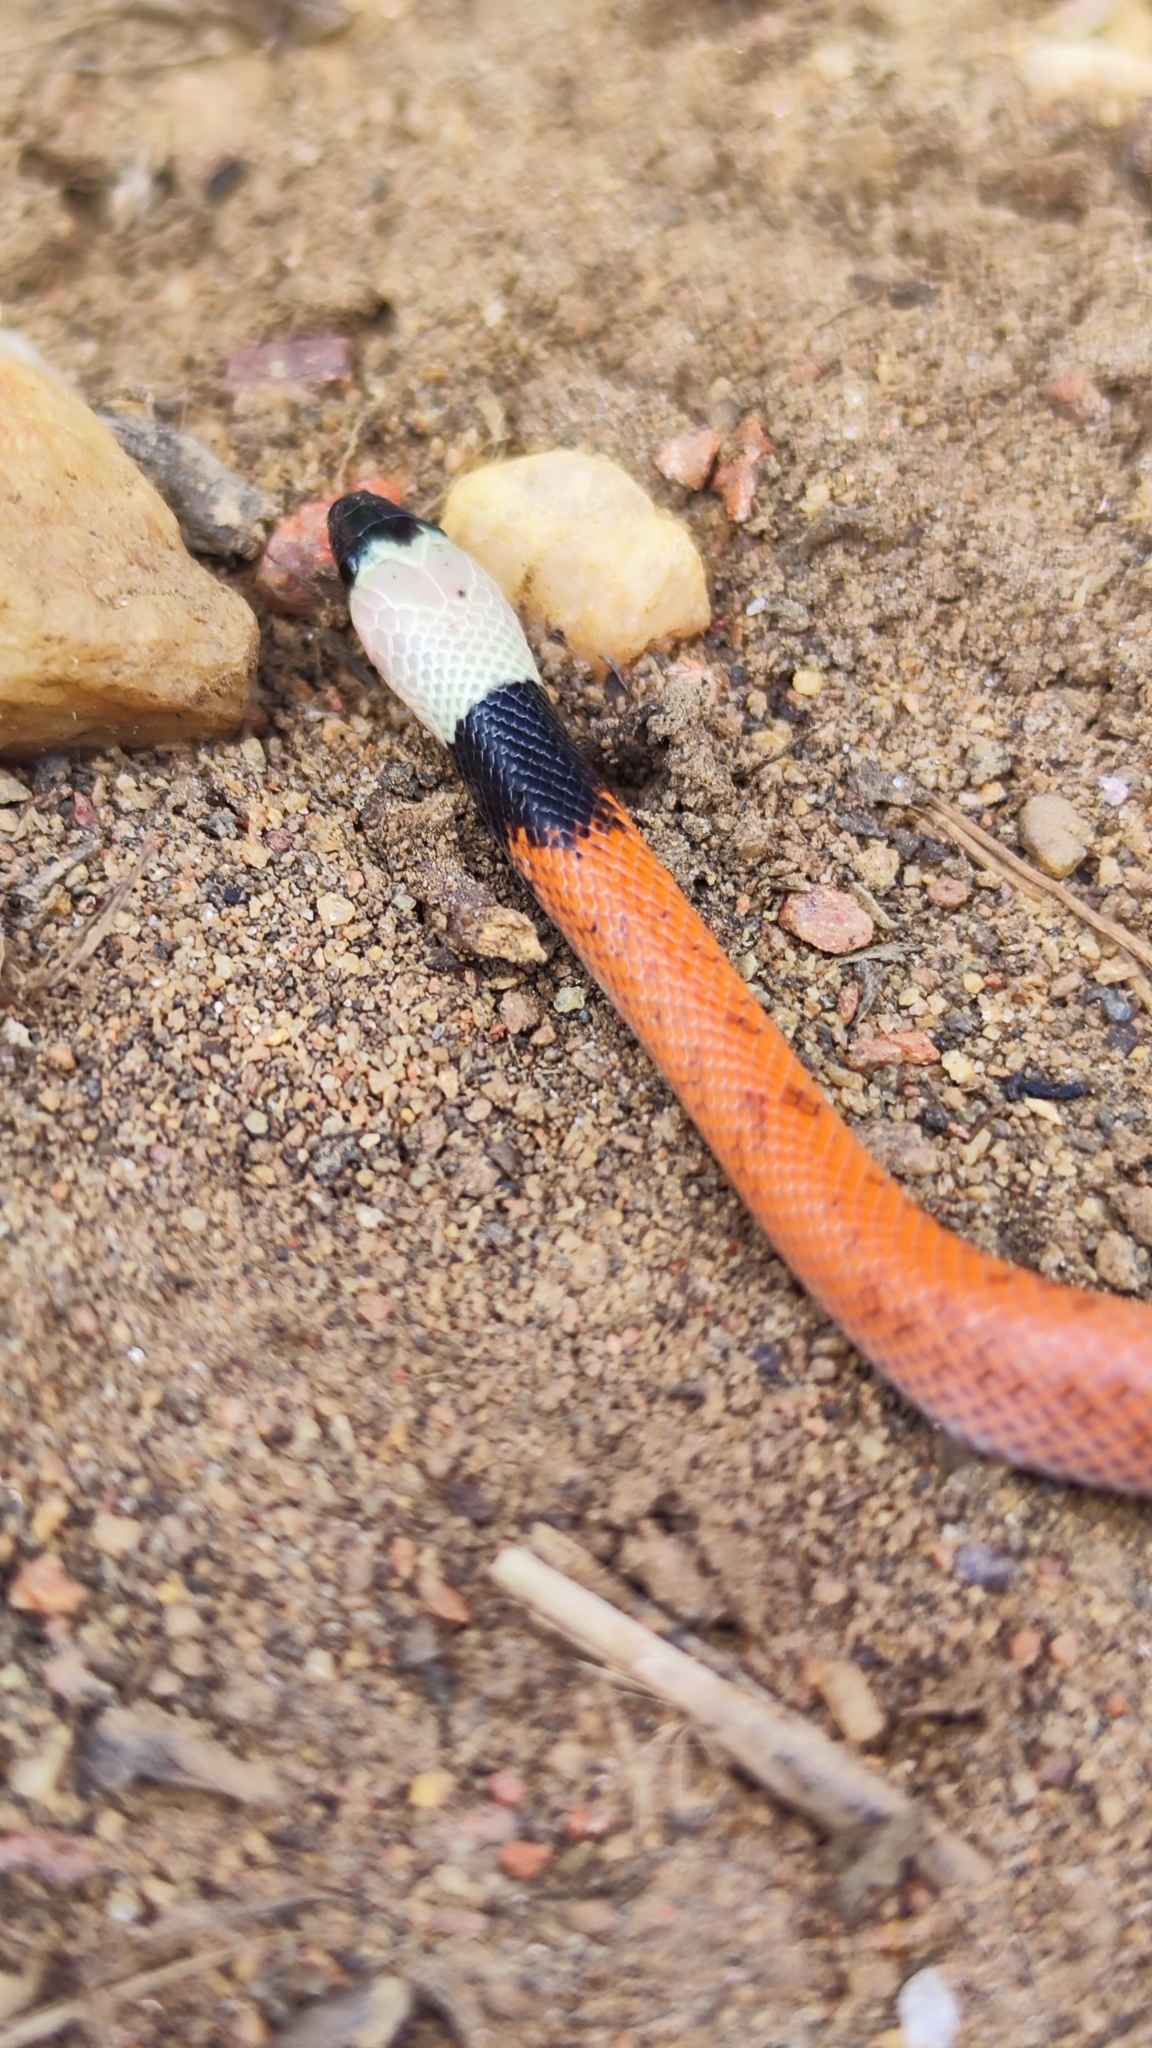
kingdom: Animalia
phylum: Chordata
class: Squamata
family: Colubridae
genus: Pseudoboa
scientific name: Pseudoboa nigra
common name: Black false boa
